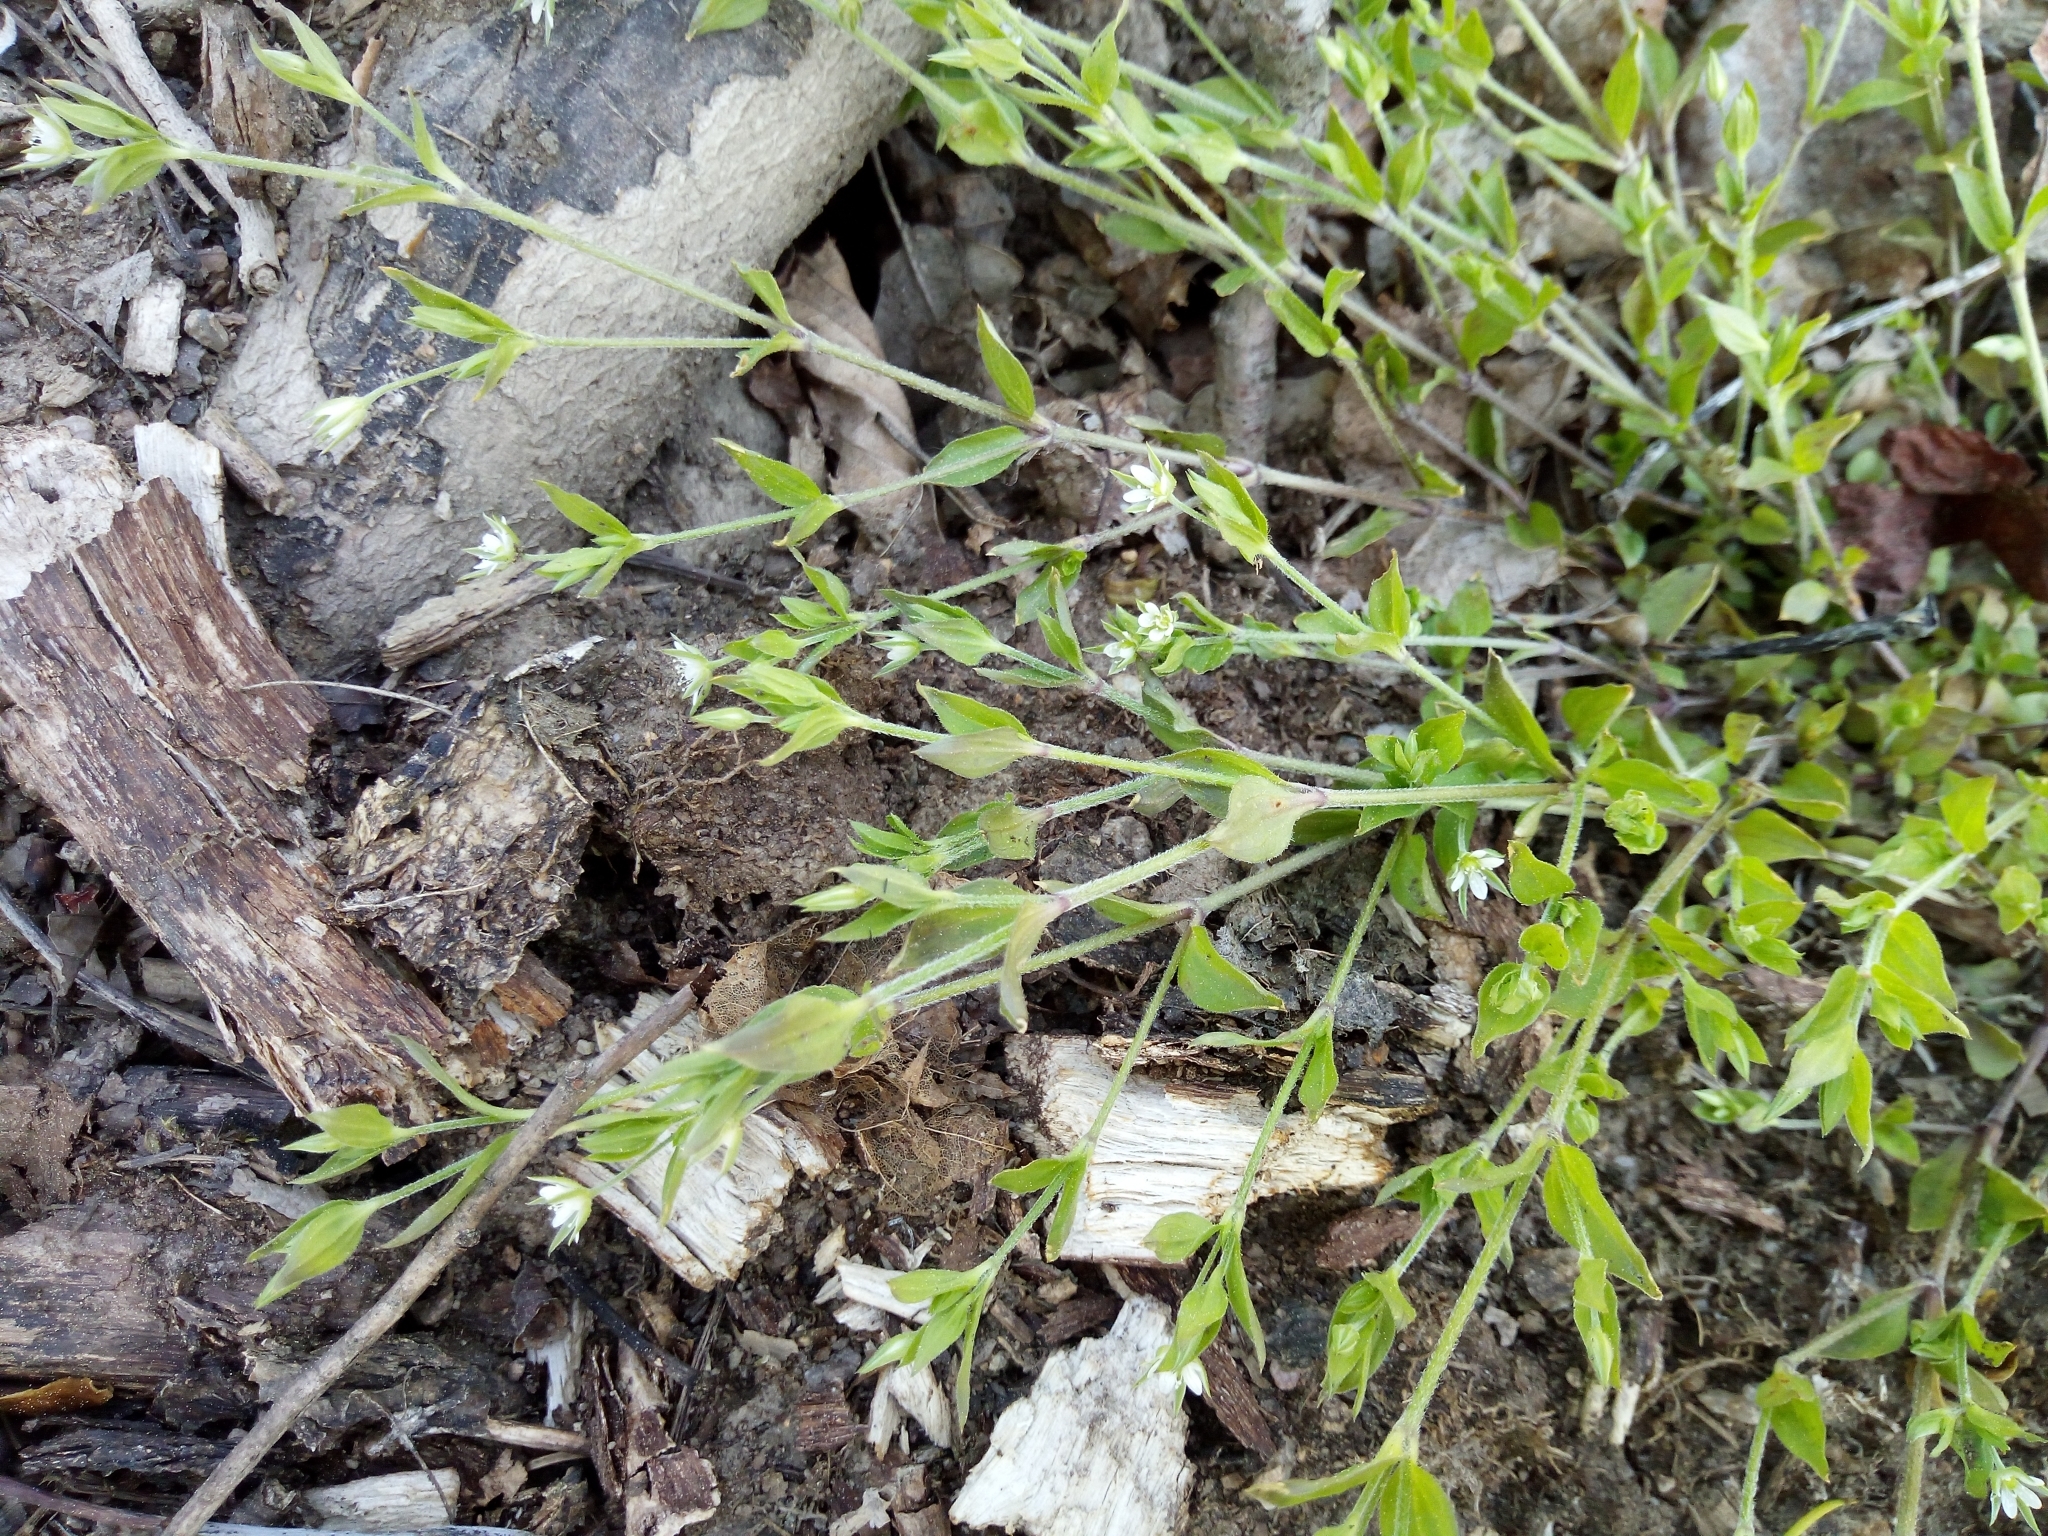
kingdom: Plantae
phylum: Tracheophyta
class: Magnoliopsida
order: Caryophyllales
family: Caryophyllaceae
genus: Moehringia
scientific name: Moehringia trinervia
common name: Three-nerved sandwort
